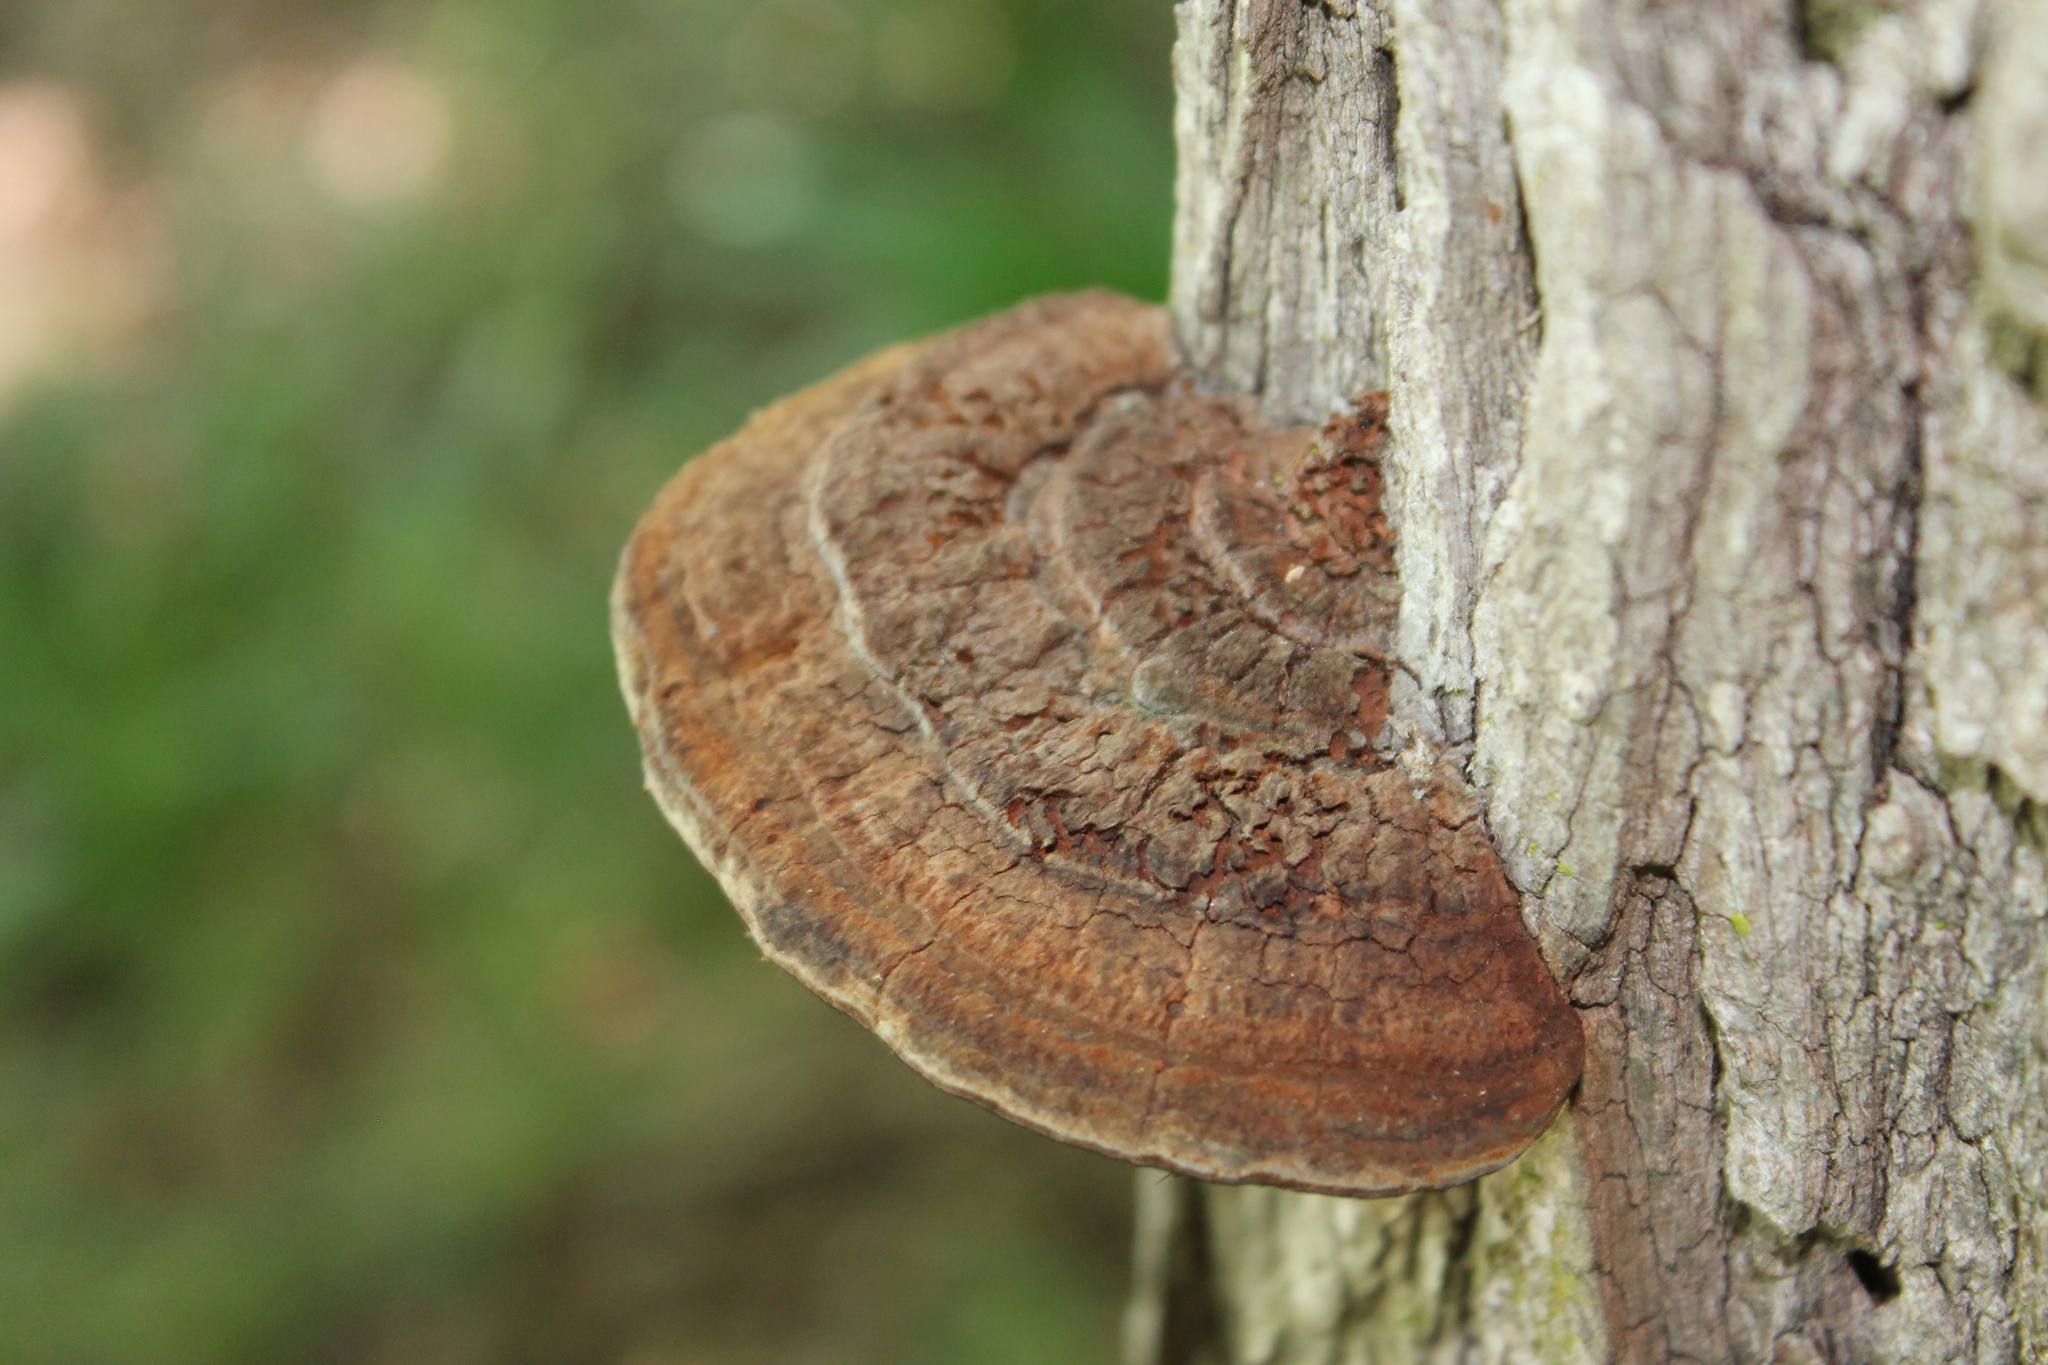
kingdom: Fungi
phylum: Basidiomycota
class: Agaricomycetes
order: Hymenochaetales
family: Hymenochaetaceae
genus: Phellinus
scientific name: Phellinus robiniae
